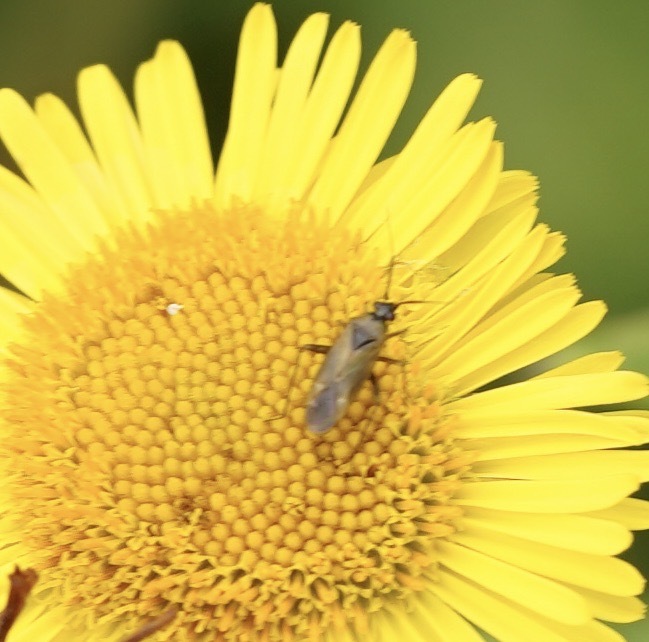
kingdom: Animalia
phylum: Arthropoda
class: Insecta
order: Hemiptera
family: Miridae
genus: Plagiognathus
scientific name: Plagiognathus arbustorum
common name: Plant bug
